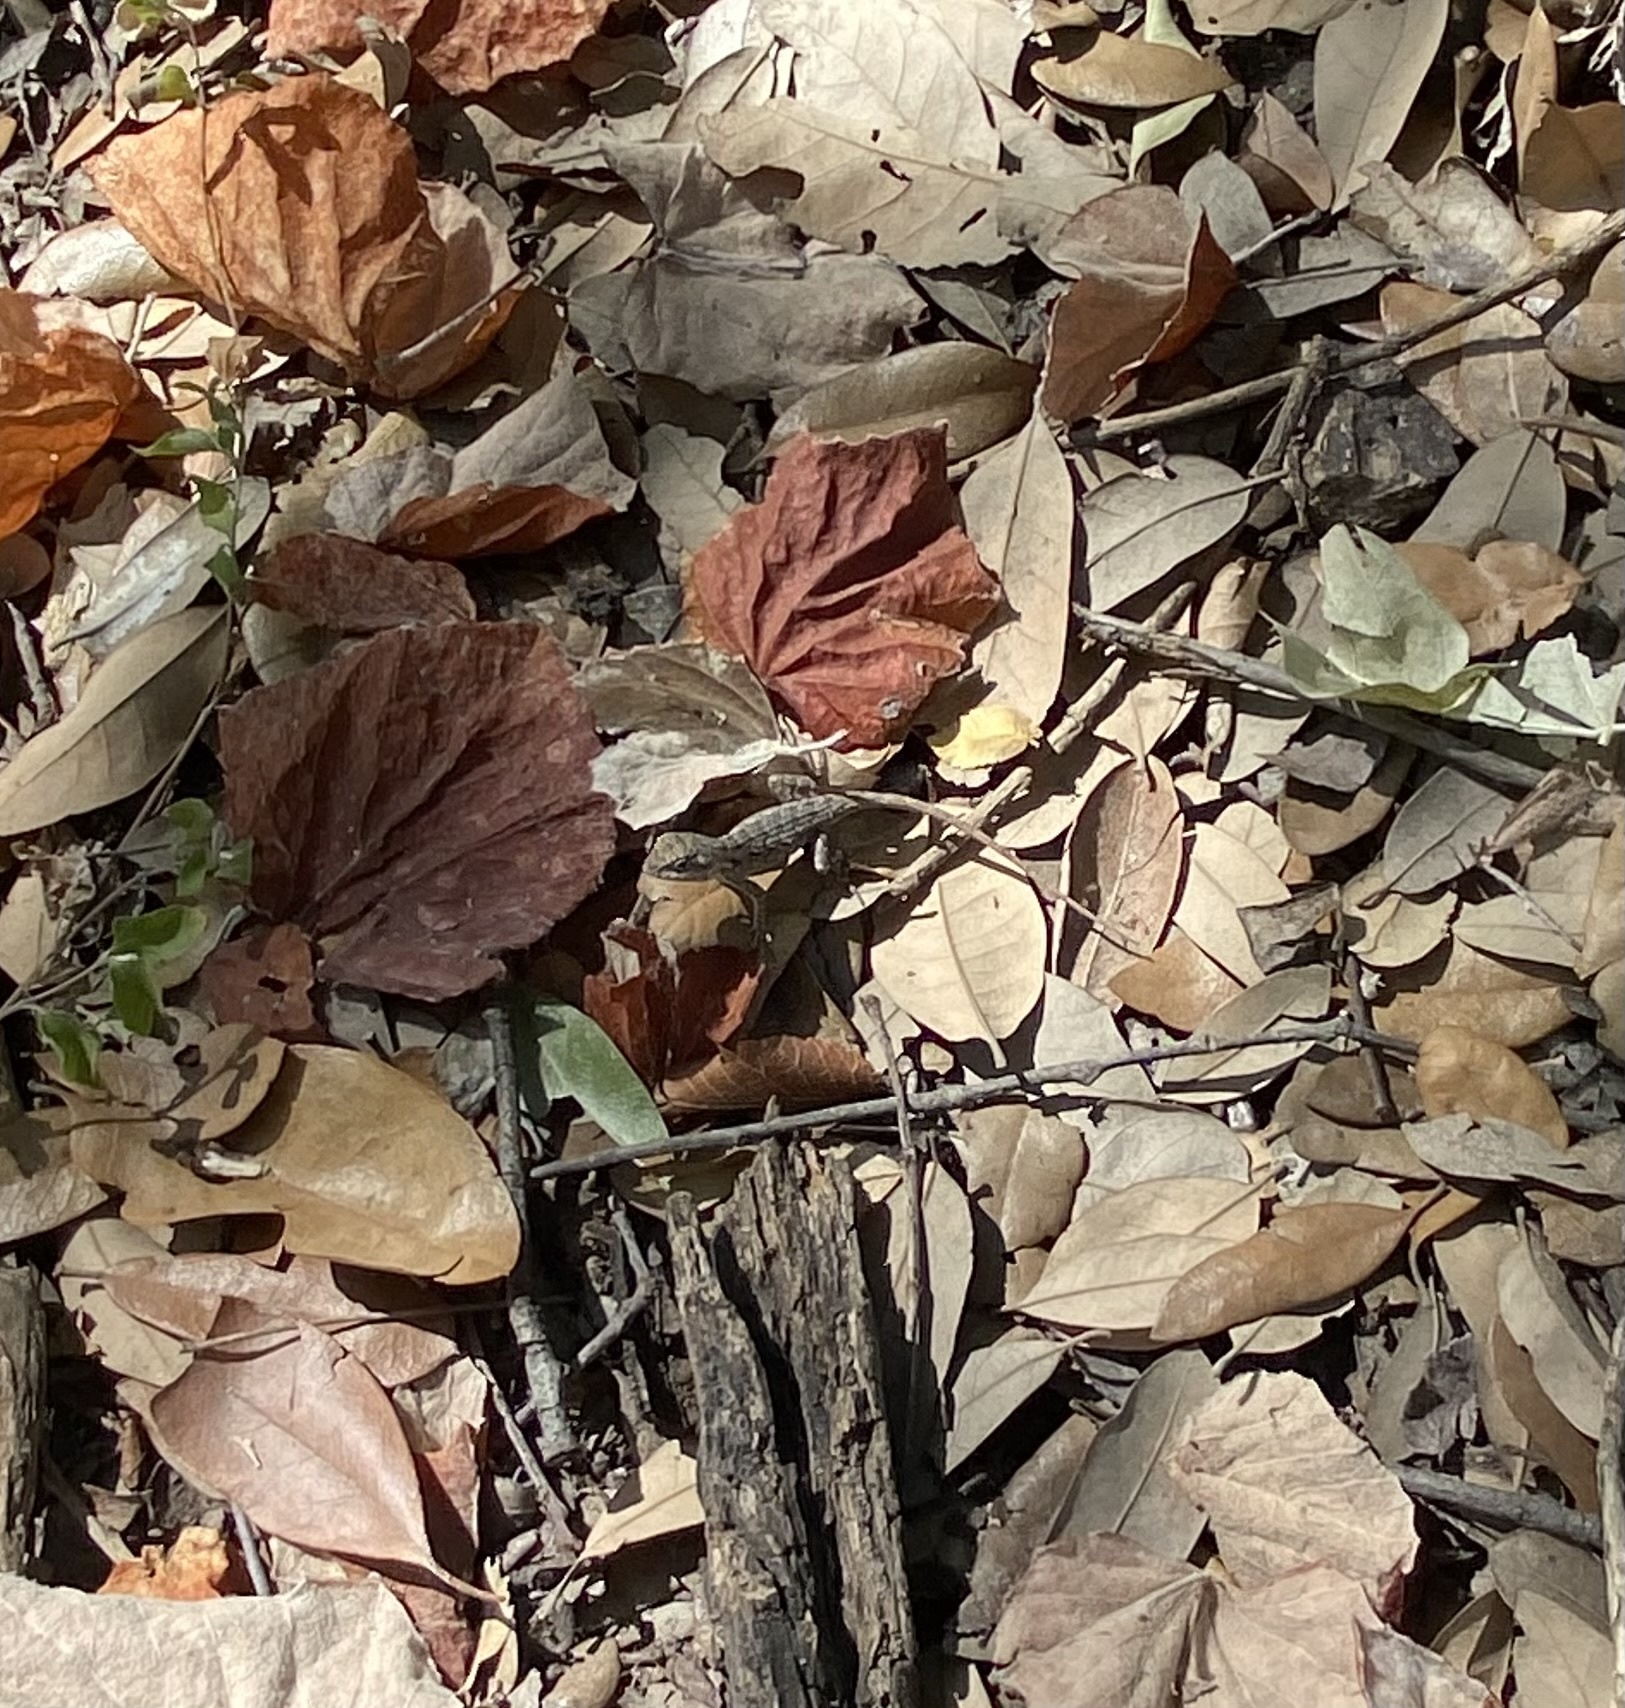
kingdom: Animalia
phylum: Chordata
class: Squamata
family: Phrynosomatidae
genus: Sceloporus
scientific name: Sceloporus olivaceus
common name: Texas spiny lizard
